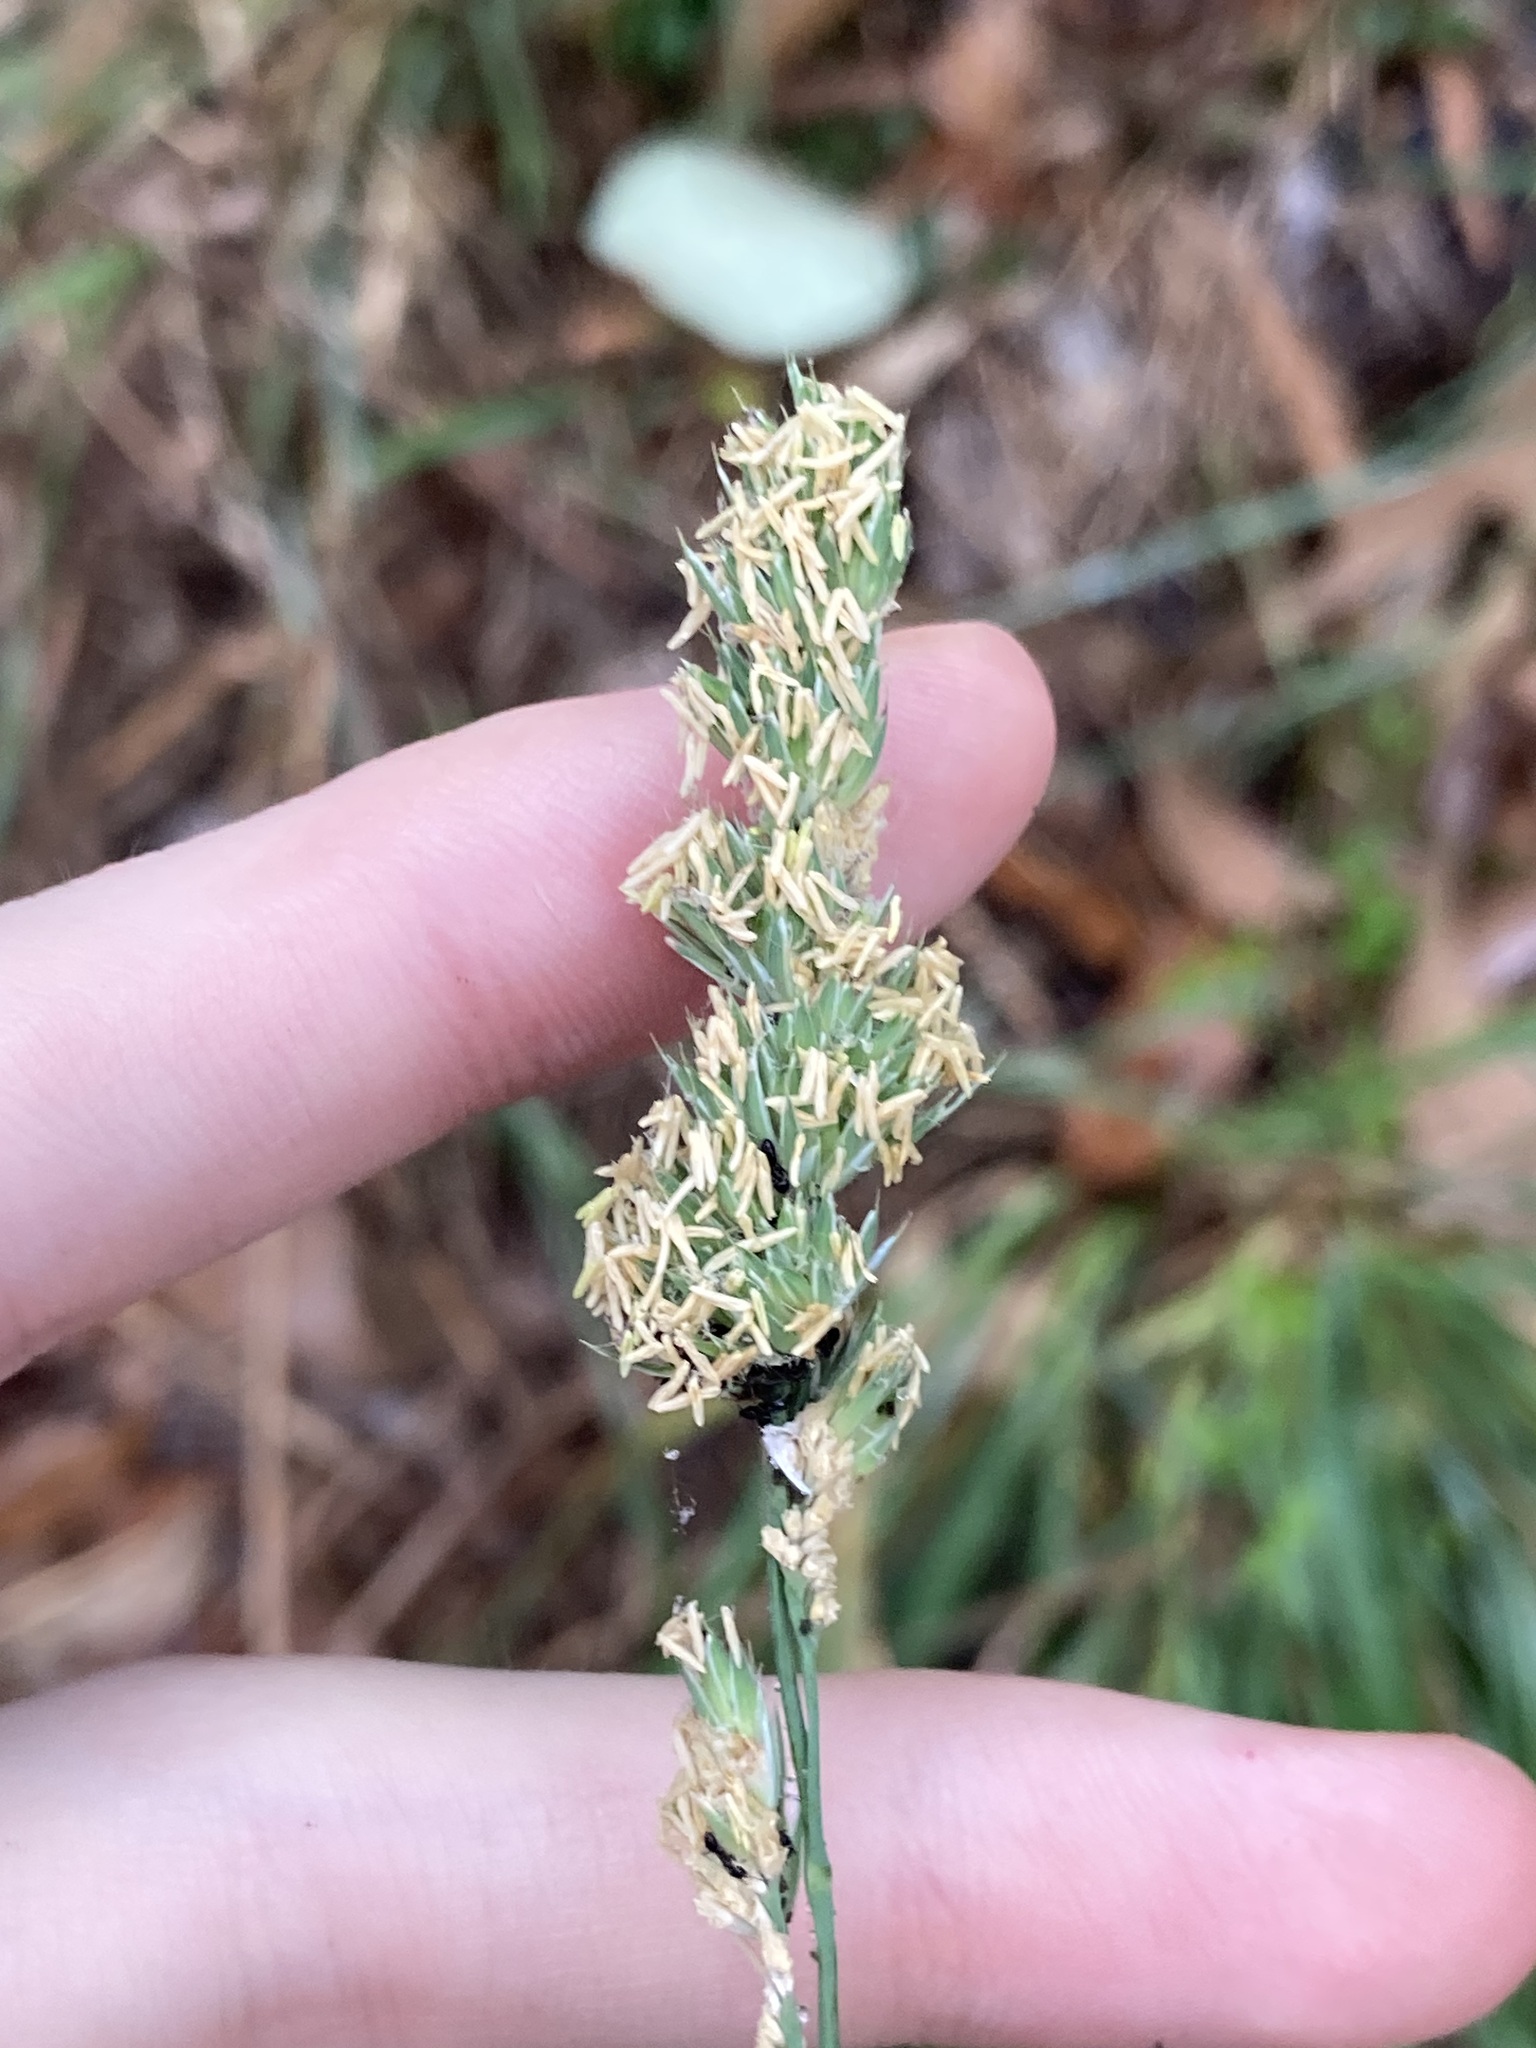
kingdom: Plantae
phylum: Tracheophyta
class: Liliopsida
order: Poales
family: Poaceae
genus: Dactylis
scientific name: Dactylis glomerata
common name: Orchardgrass
